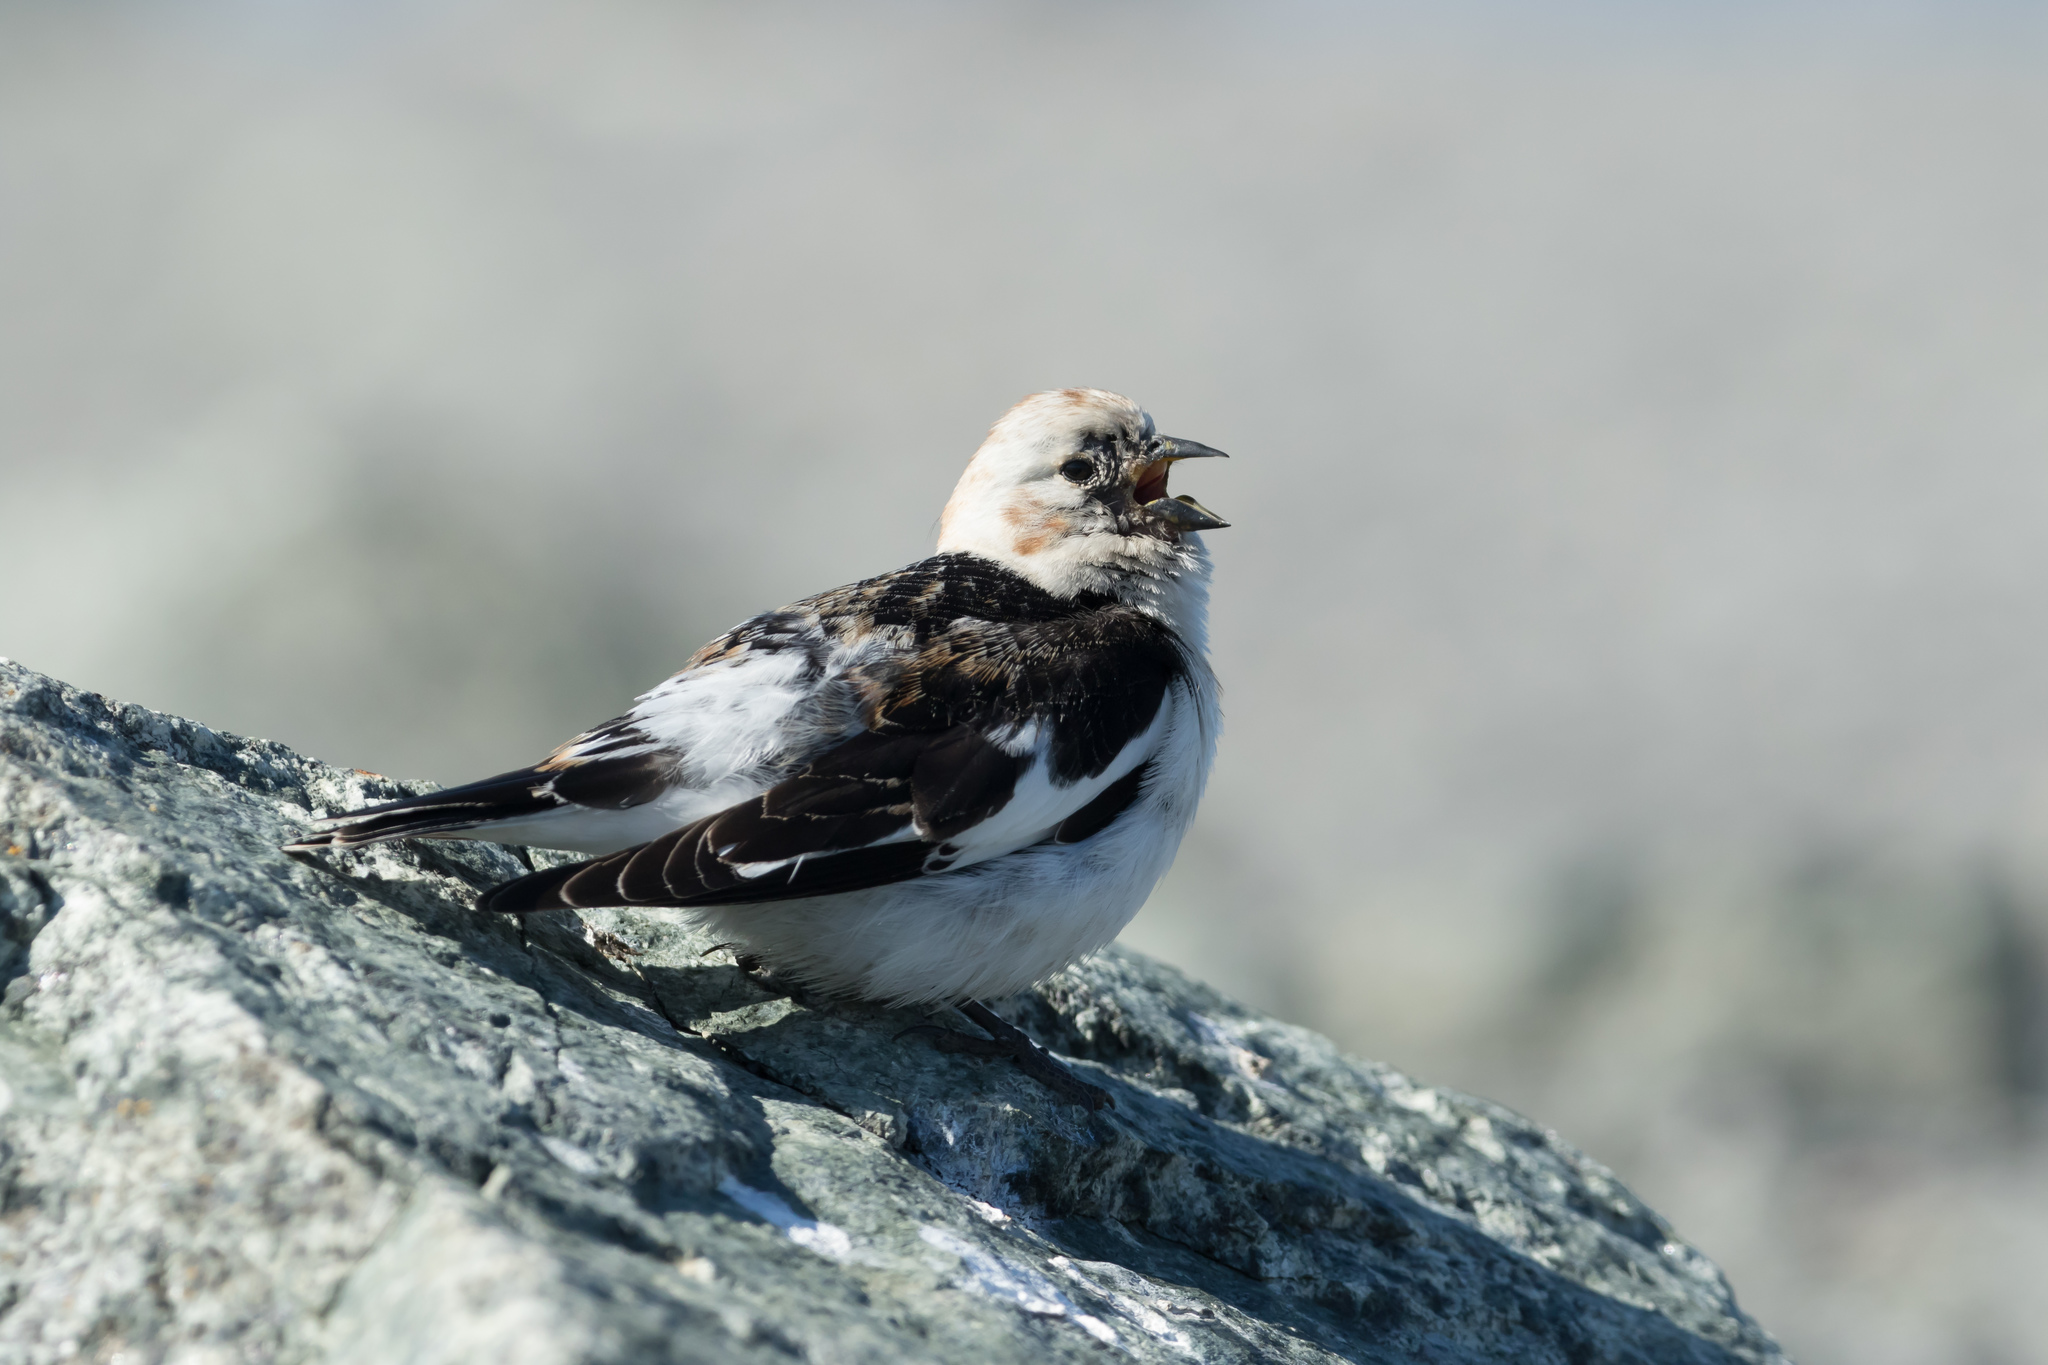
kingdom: Animalia
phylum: Chordata
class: Aves
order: Passeriformes
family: Calcariidae
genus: Plectrophenax
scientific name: Plectrophenax nivalis
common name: Snow bunting
